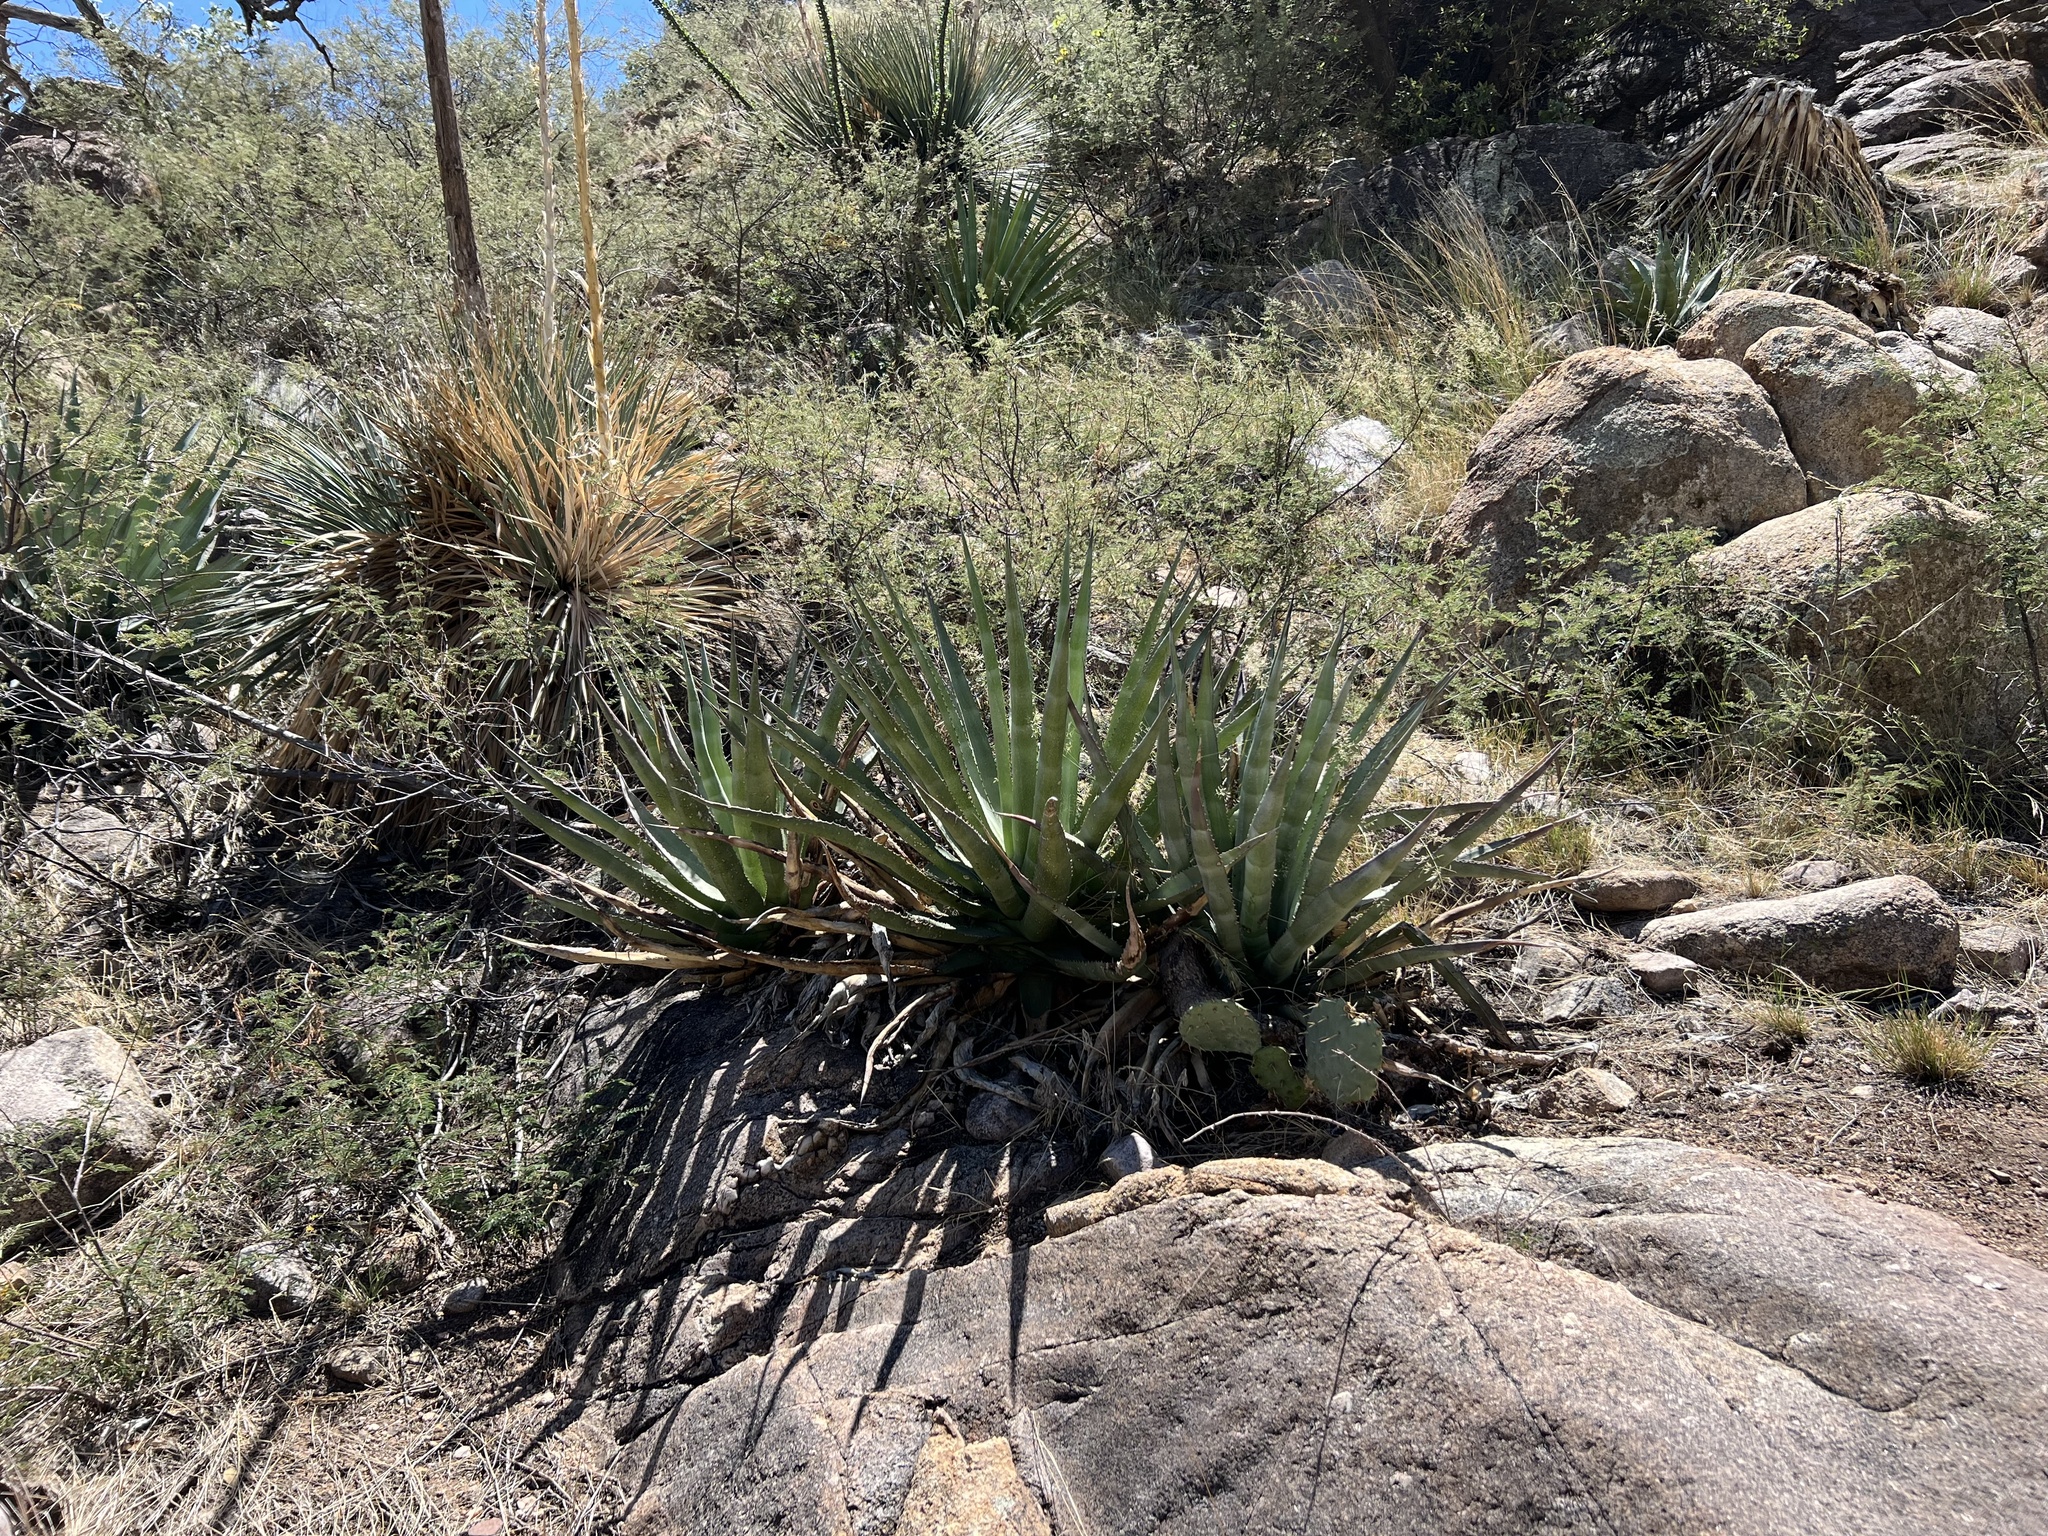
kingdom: Plantae
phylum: Tracheophyta
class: Liliopsida
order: Asparagales
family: Asparagaceae
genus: Agave
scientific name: Agave palmeri
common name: Palmer agave
